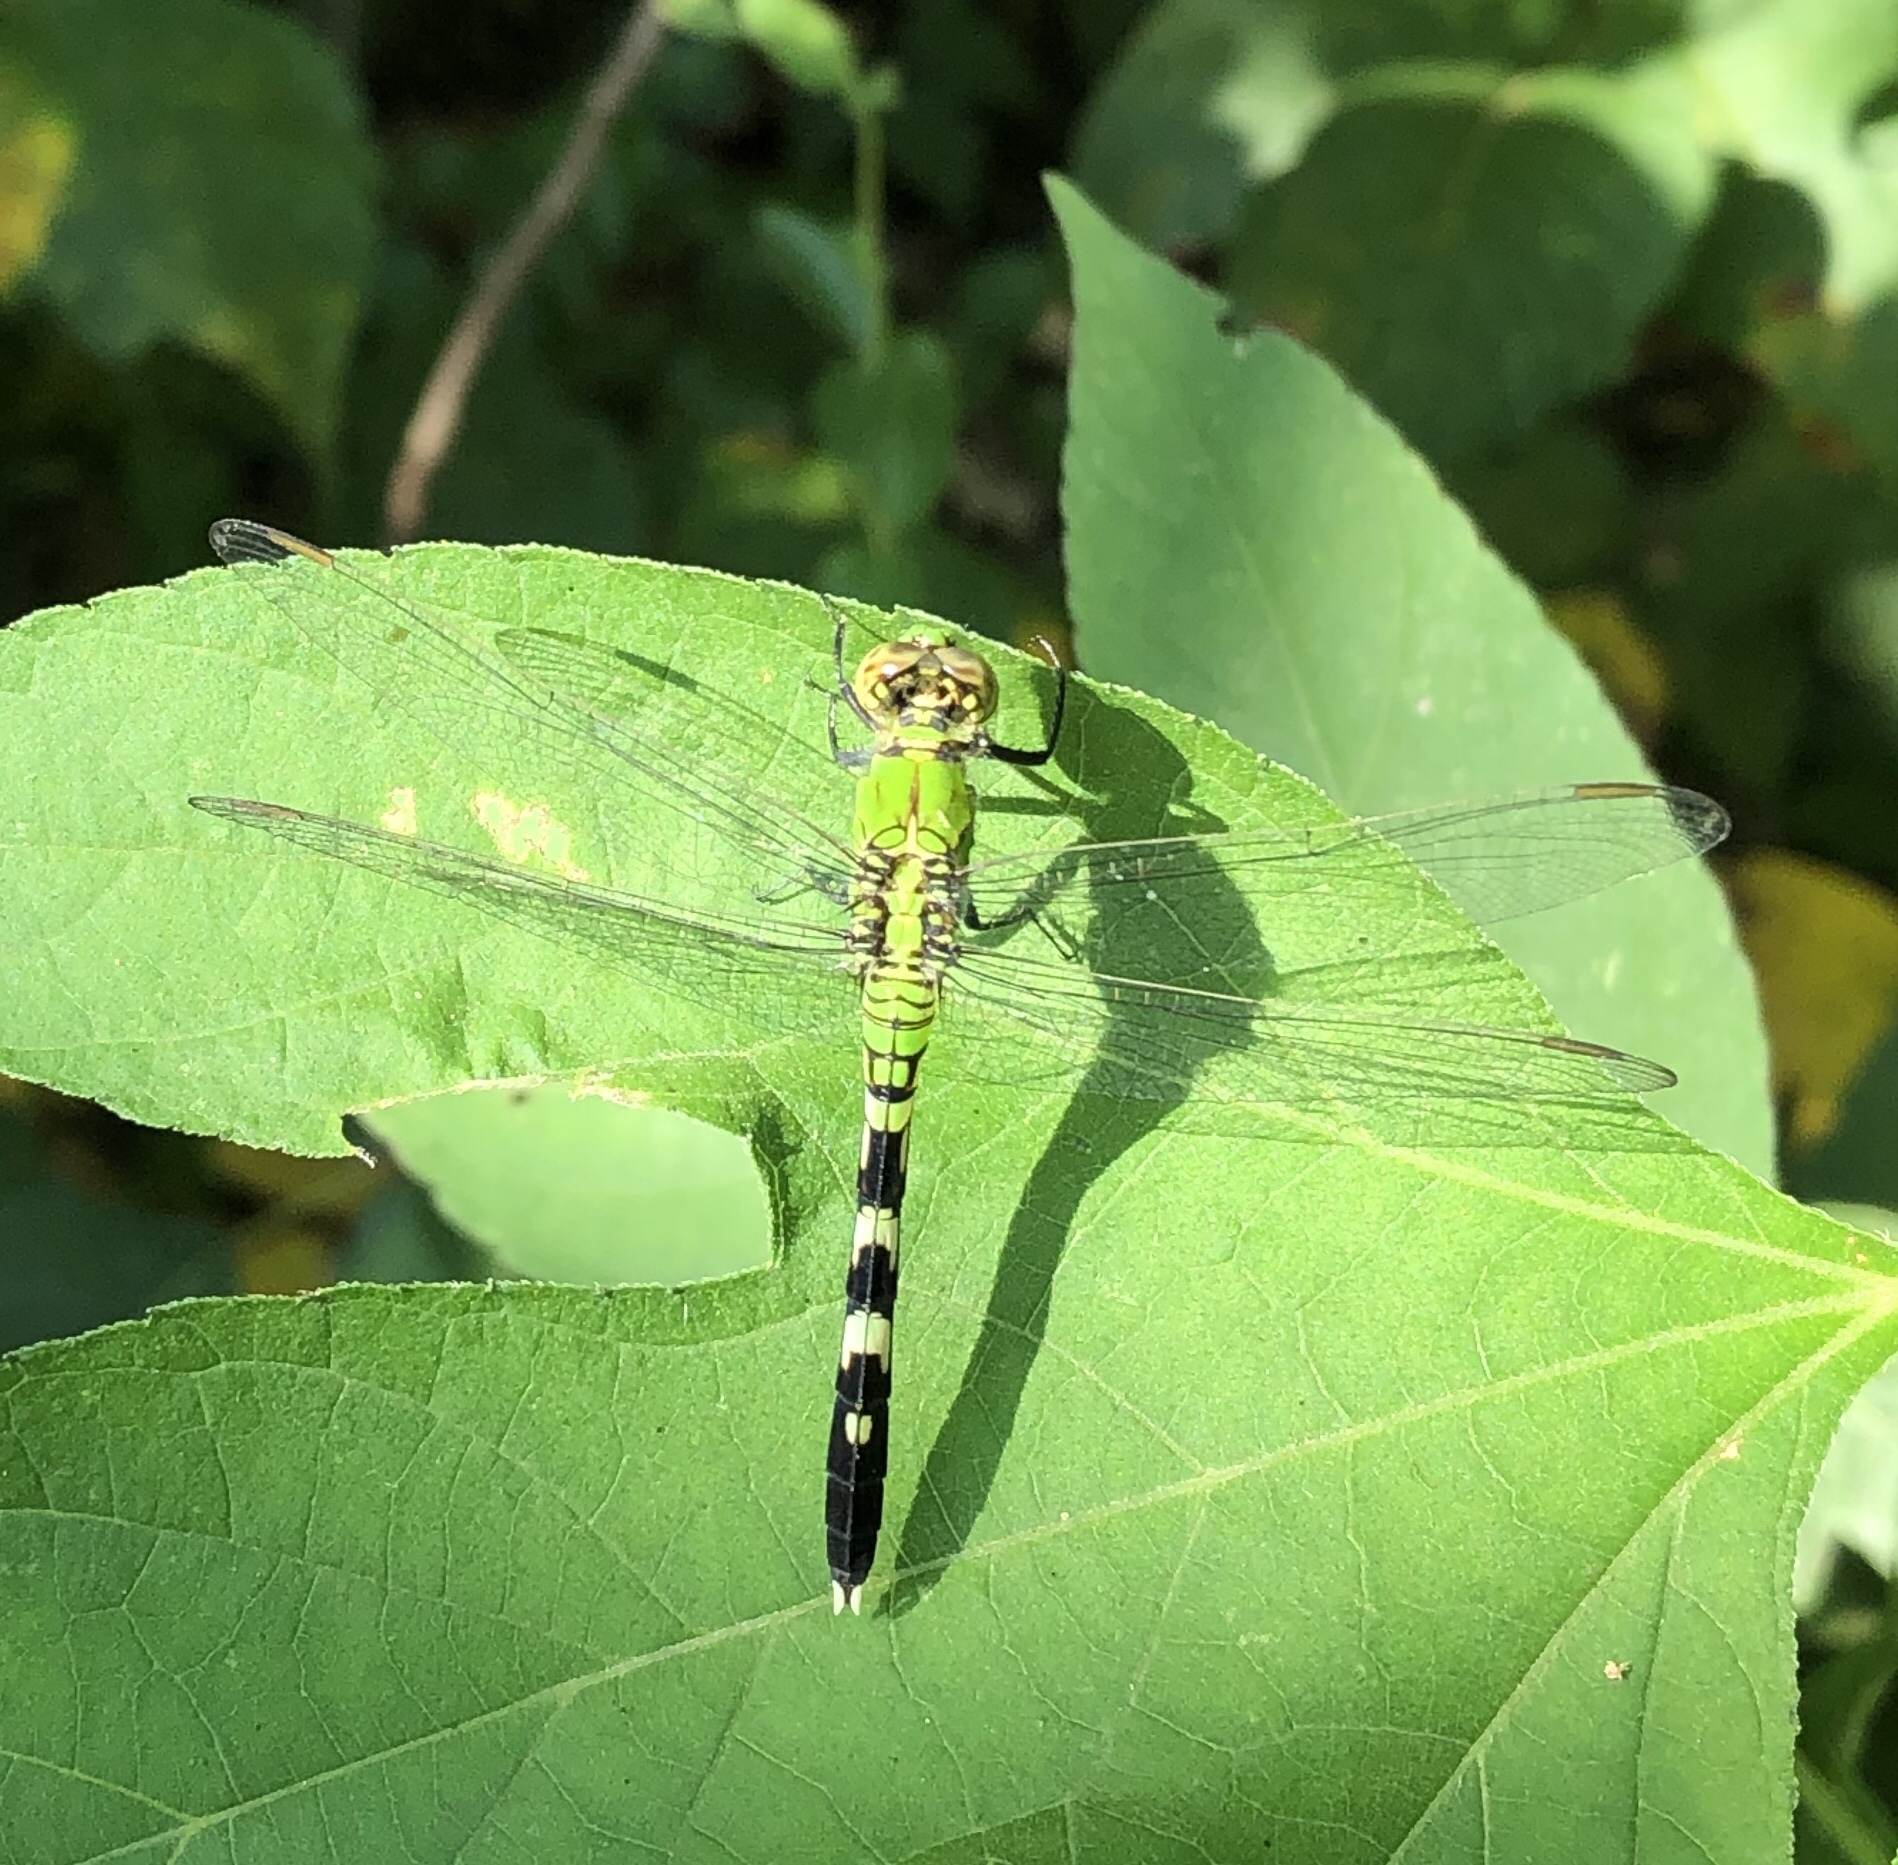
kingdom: Animalia
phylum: Arthropoda
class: Insecta
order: Odonata
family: Libellulidae
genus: Erythemis
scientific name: Erythemis simplicicollis
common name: Eastern pondhawk
